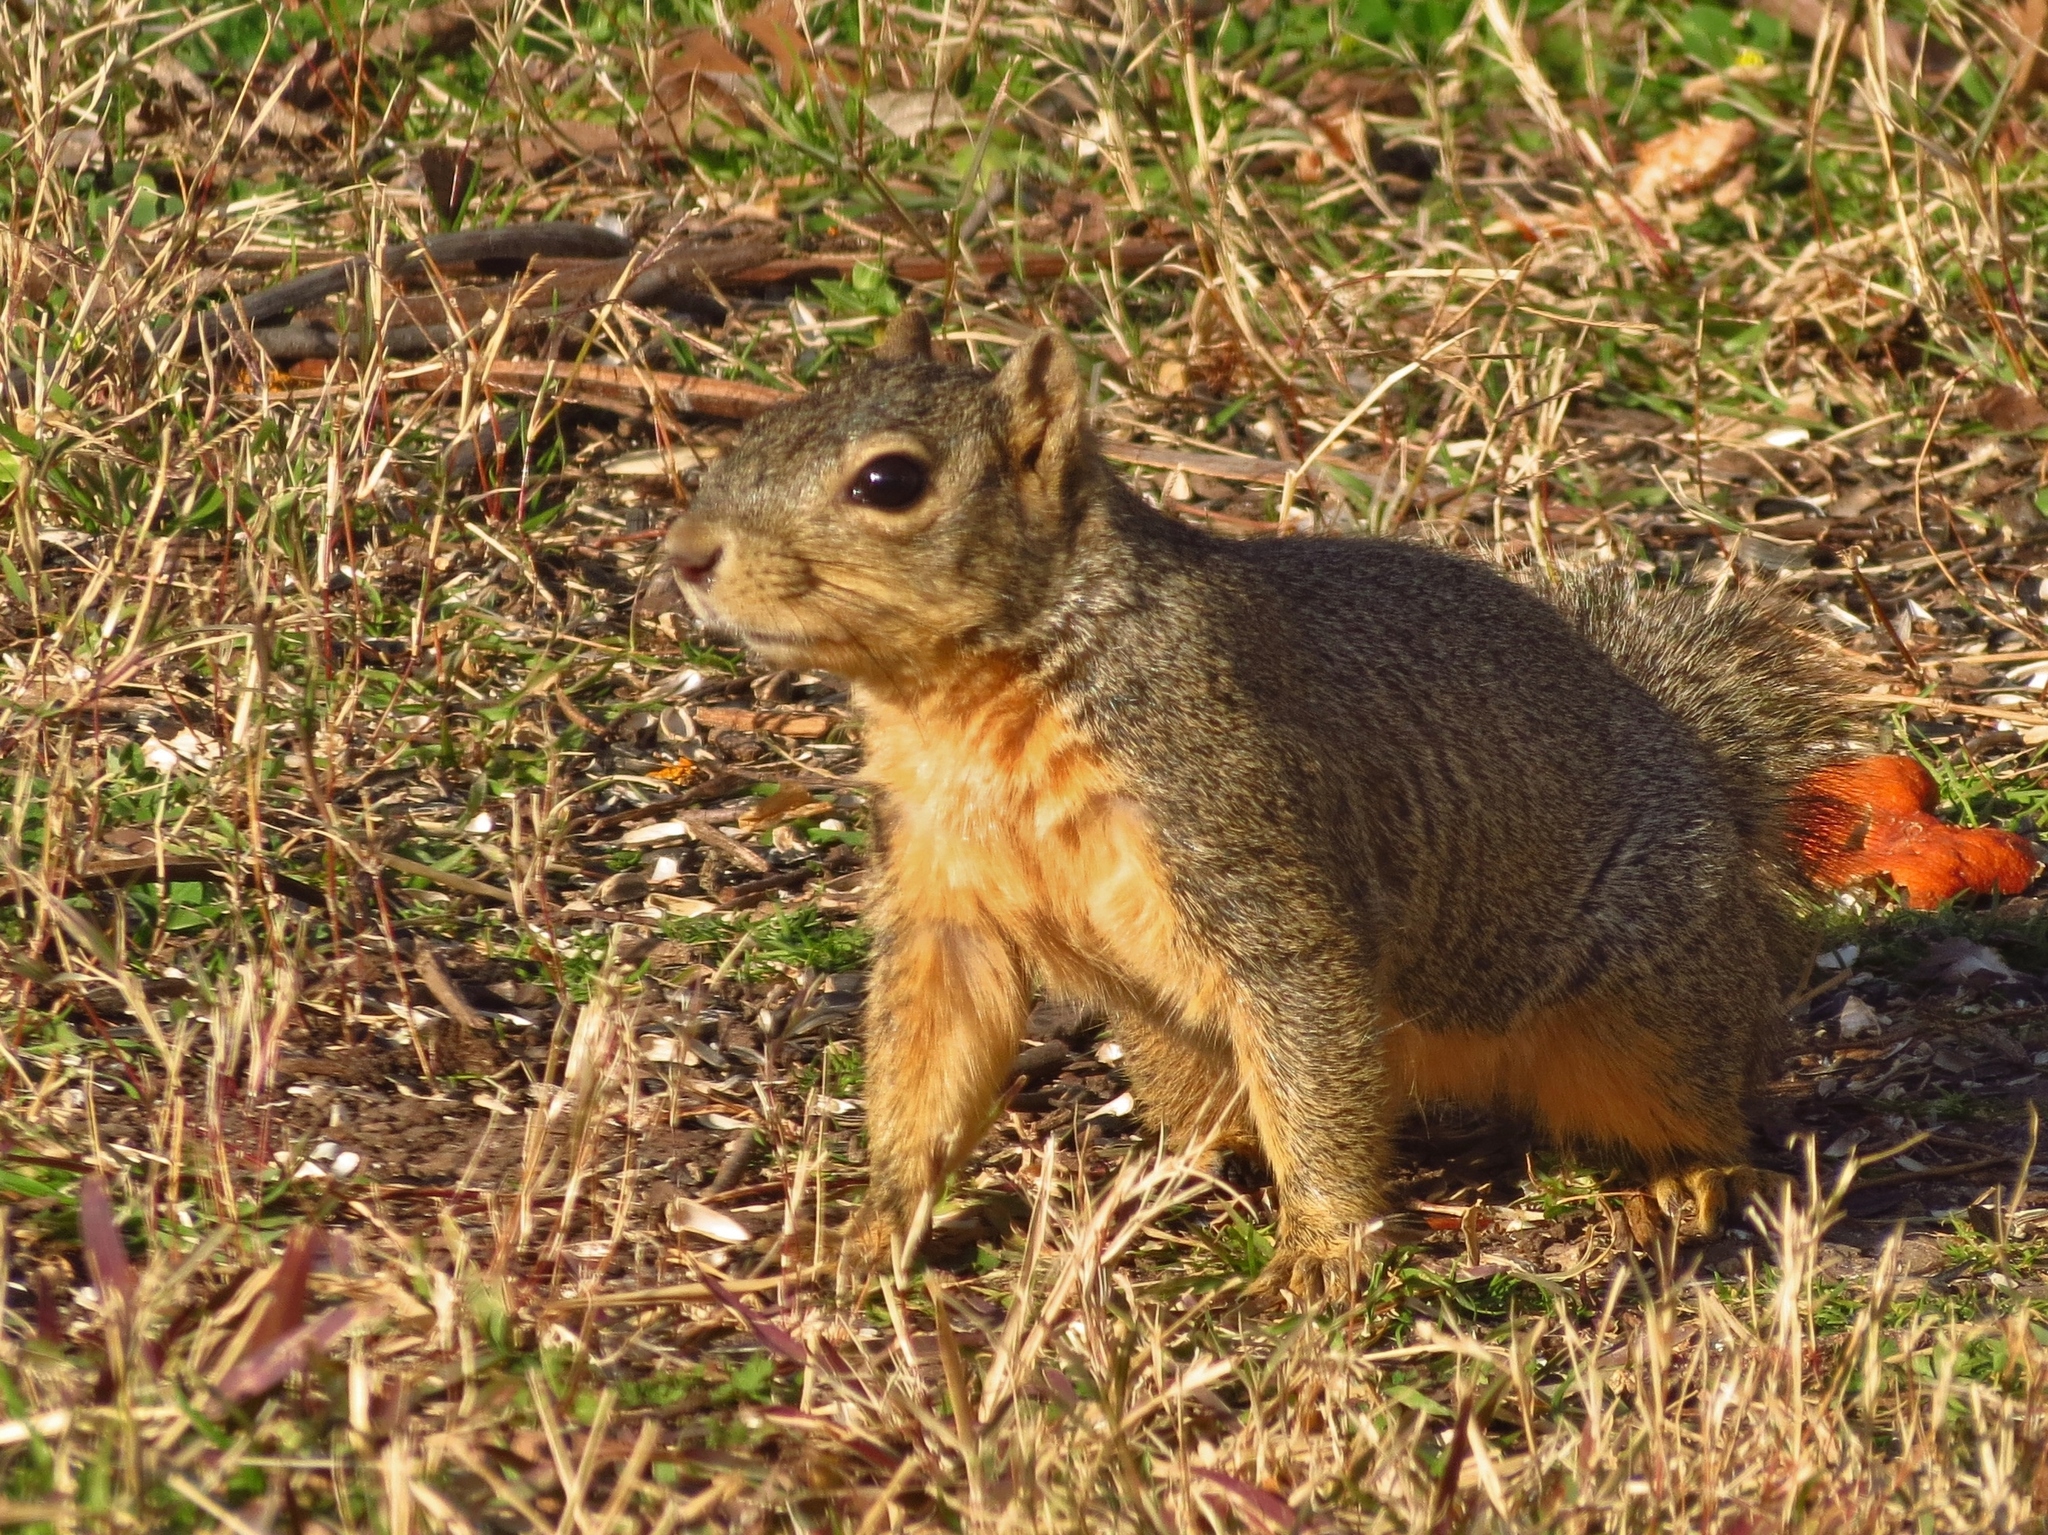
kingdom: Animalia
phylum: Chordata
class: Mammalia
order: Rodentia
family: Sciuridae
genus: Sciurus
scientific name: Sciurus niger
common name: Fox squirrel
